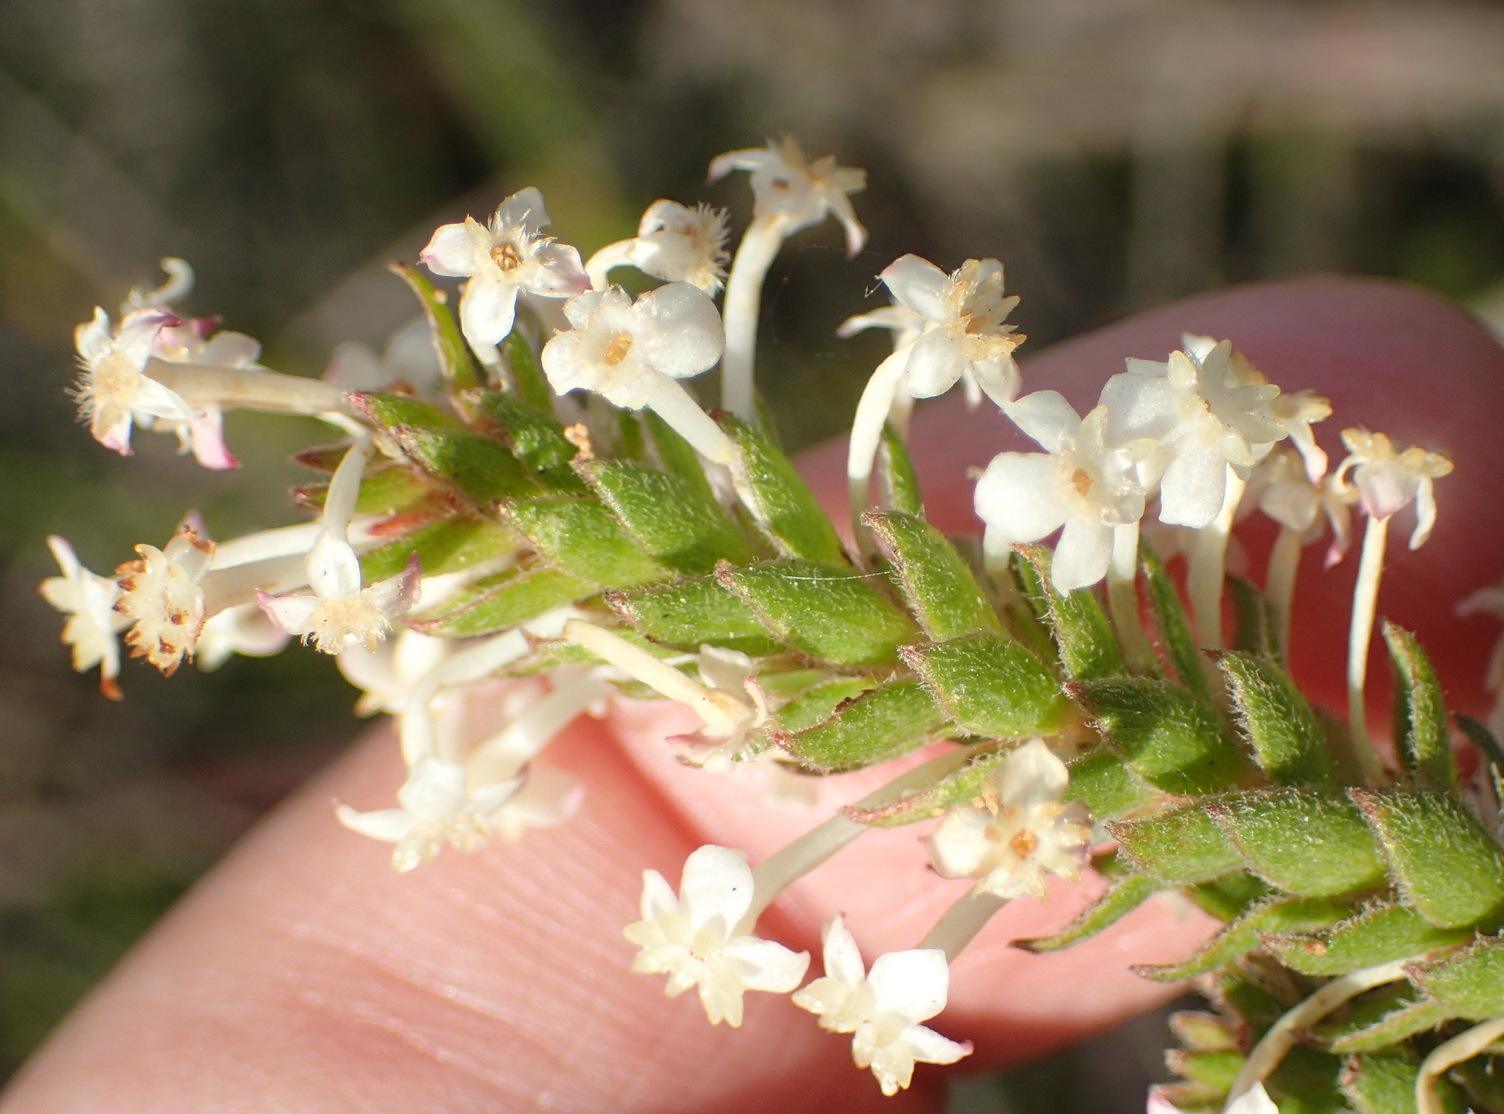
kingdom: Plantae
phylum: Tracheophyta
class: Magnoliopsida
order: Malvales
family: Thymelaeaceae
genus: Struthiola
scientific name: Struthiola hirsuta
